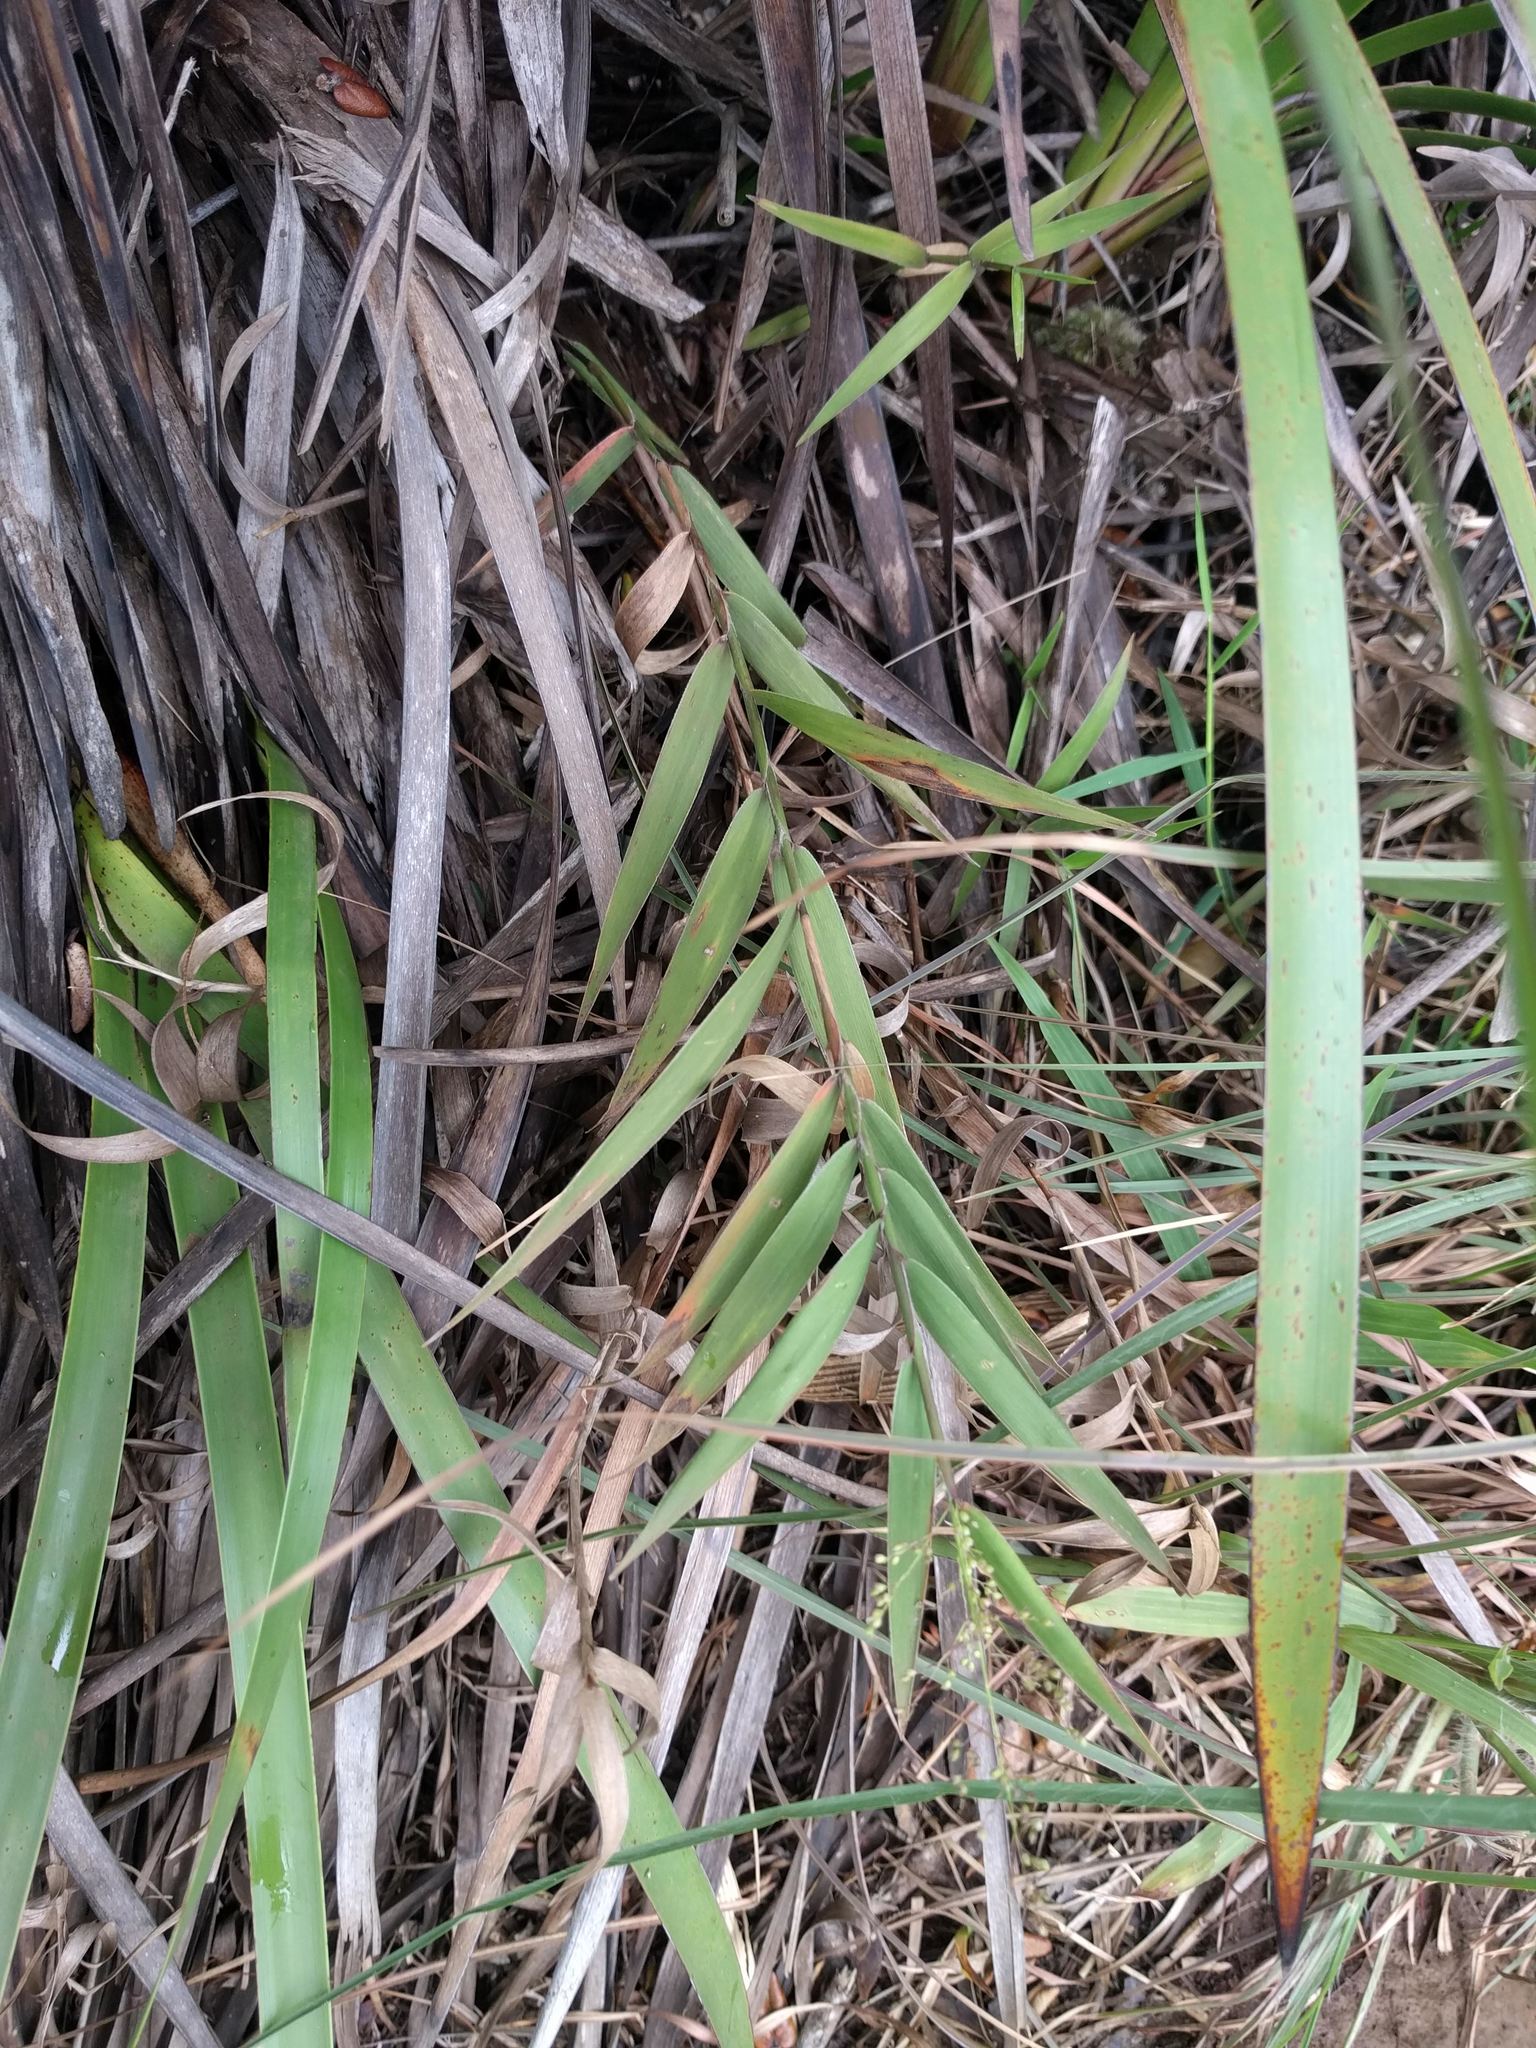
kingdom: Plantae
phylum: Tracheophyta
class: Liliopsida
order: Poales
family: Poaceae
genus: Isachne
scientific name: Isachne distichophylla
